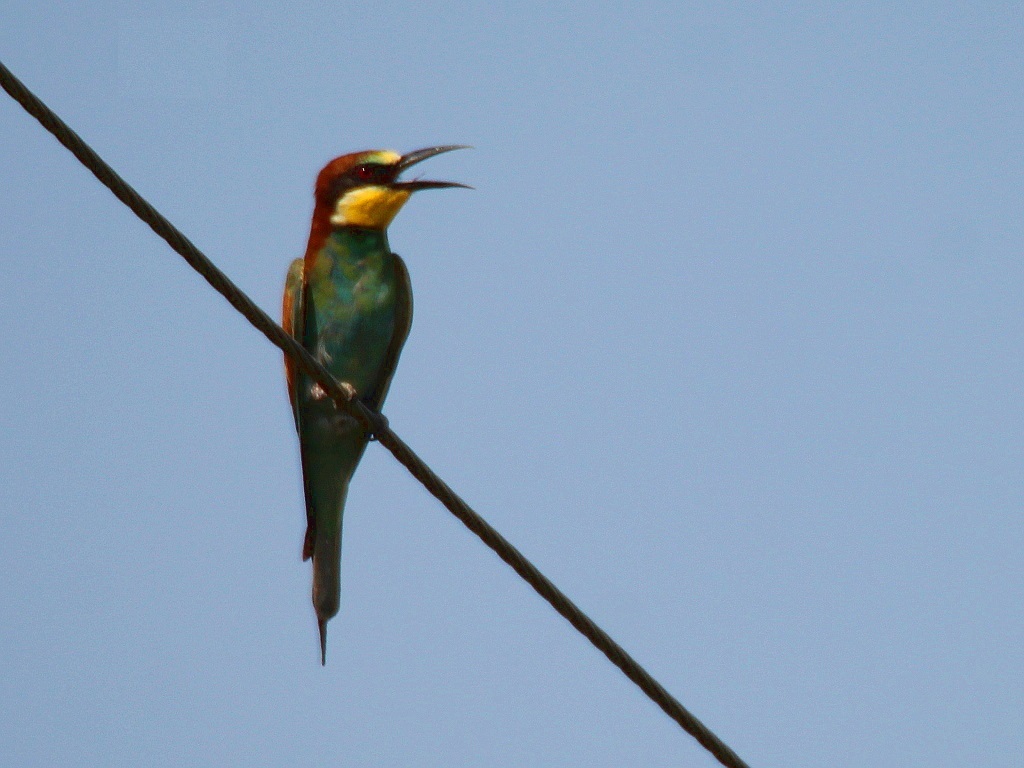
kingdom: Animalia
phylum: Chordata
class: Aves
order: Coraciiformes
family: Meropidae
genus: Merops
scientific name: Merops apiaster
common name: European bee-eater
